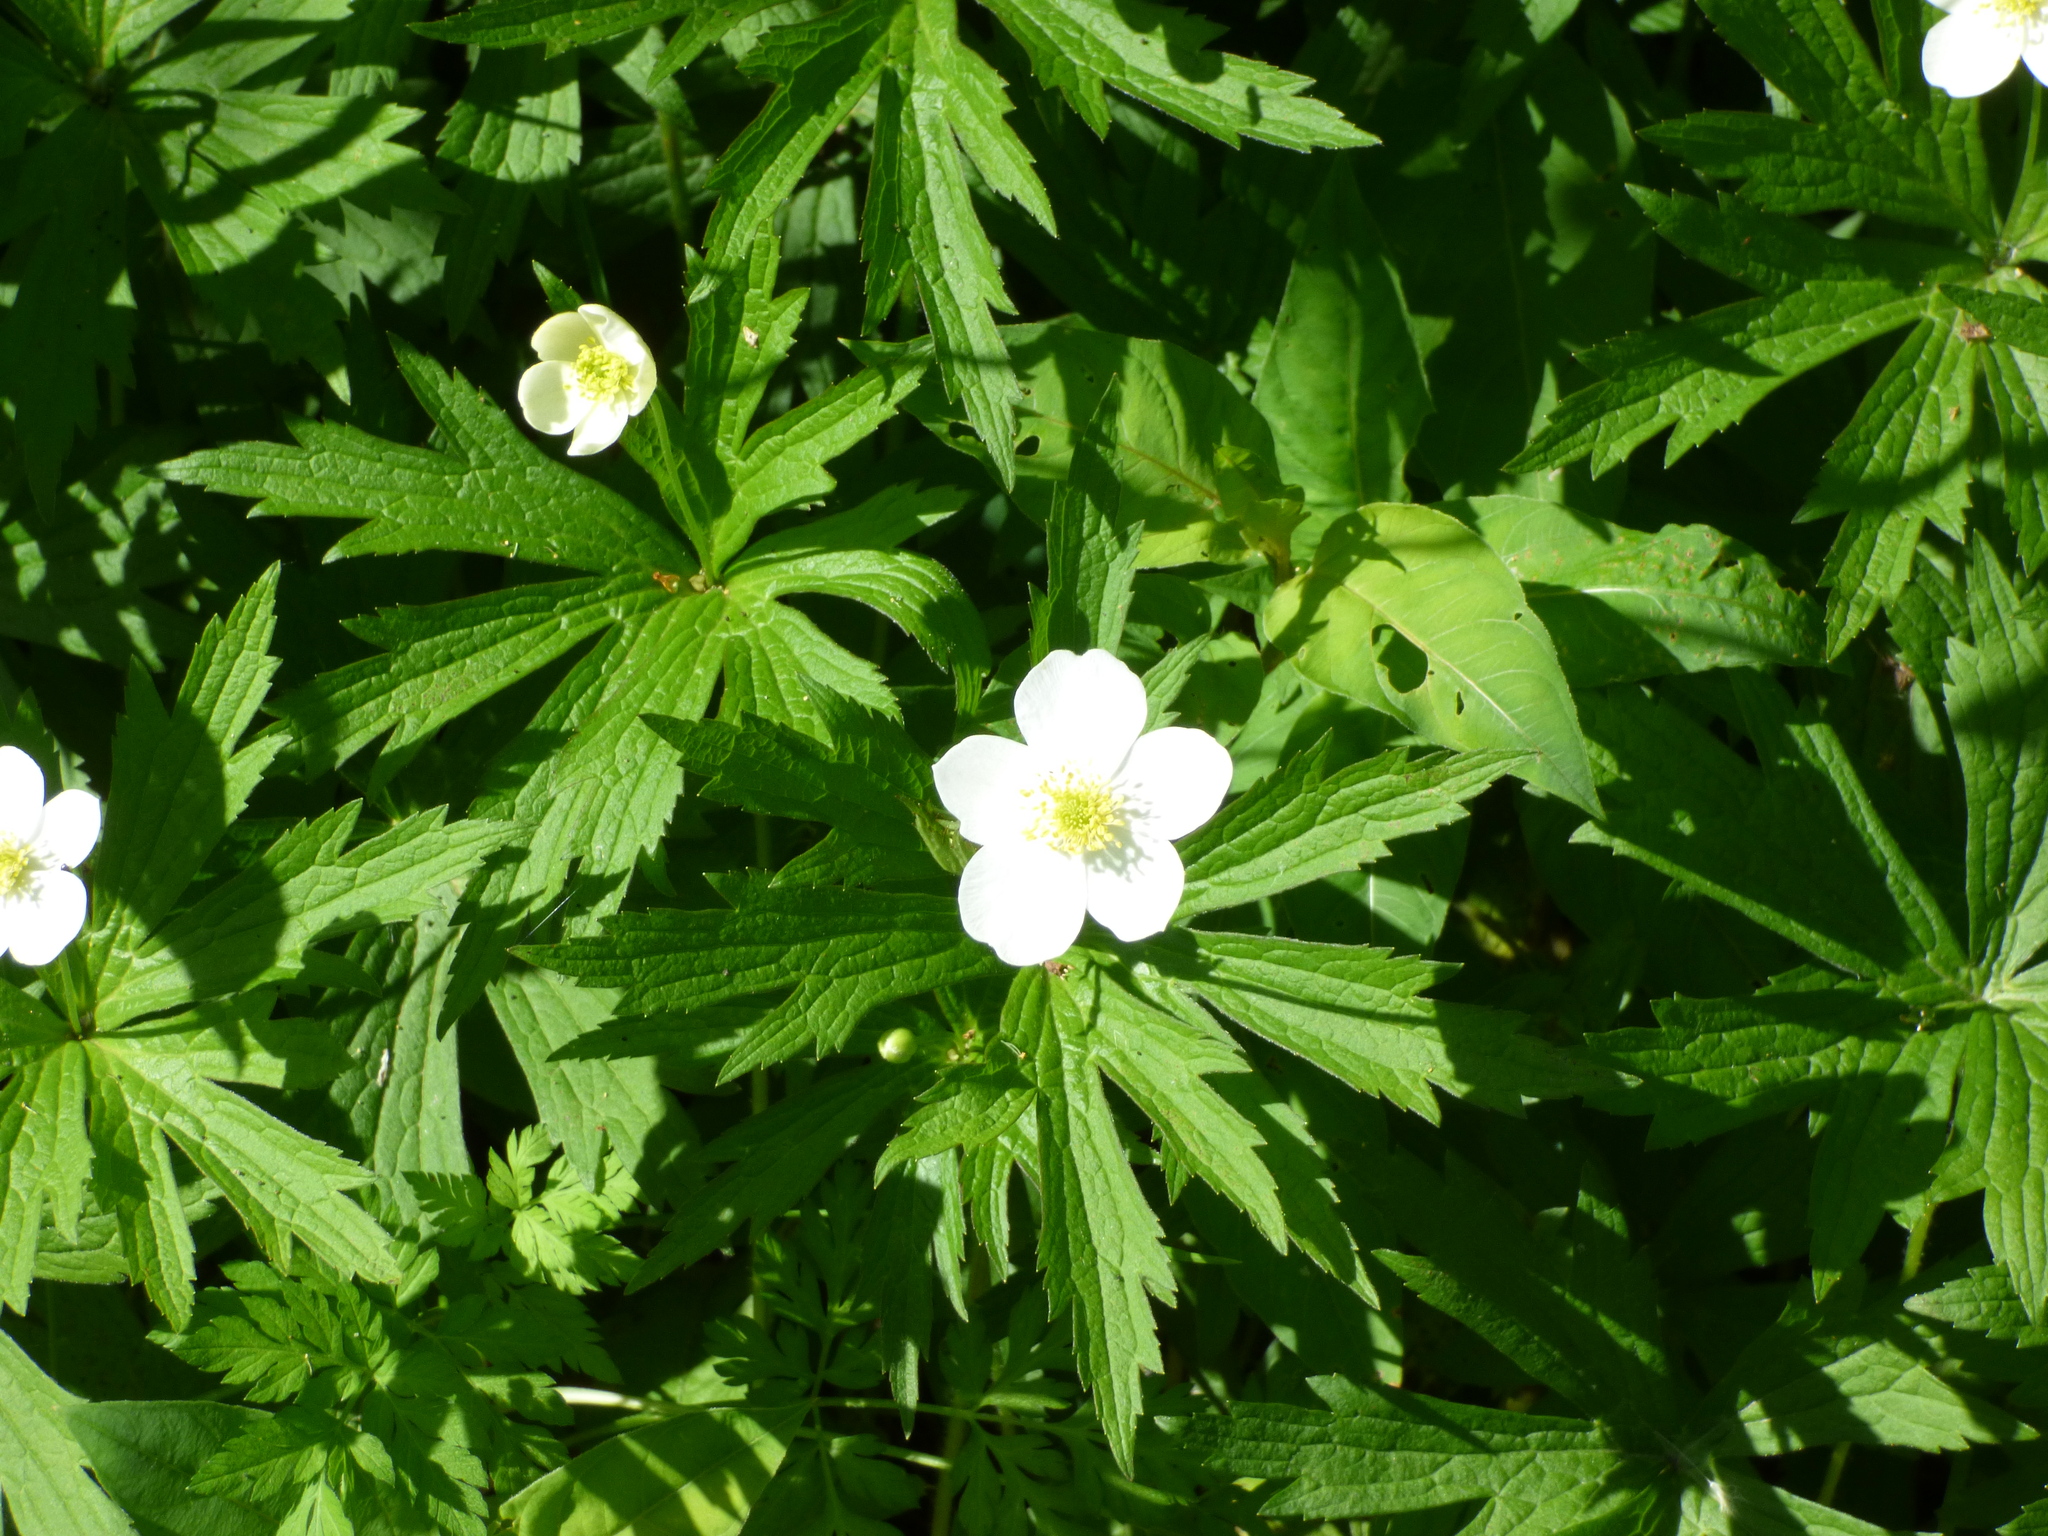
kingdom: Plantae
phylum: Tracheophyta
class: Magnoliopsida
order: Ranunculales
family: Ranunculaceae
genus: Anemonastrum
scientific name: Anemonastrum canadense
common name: Canada anemone
